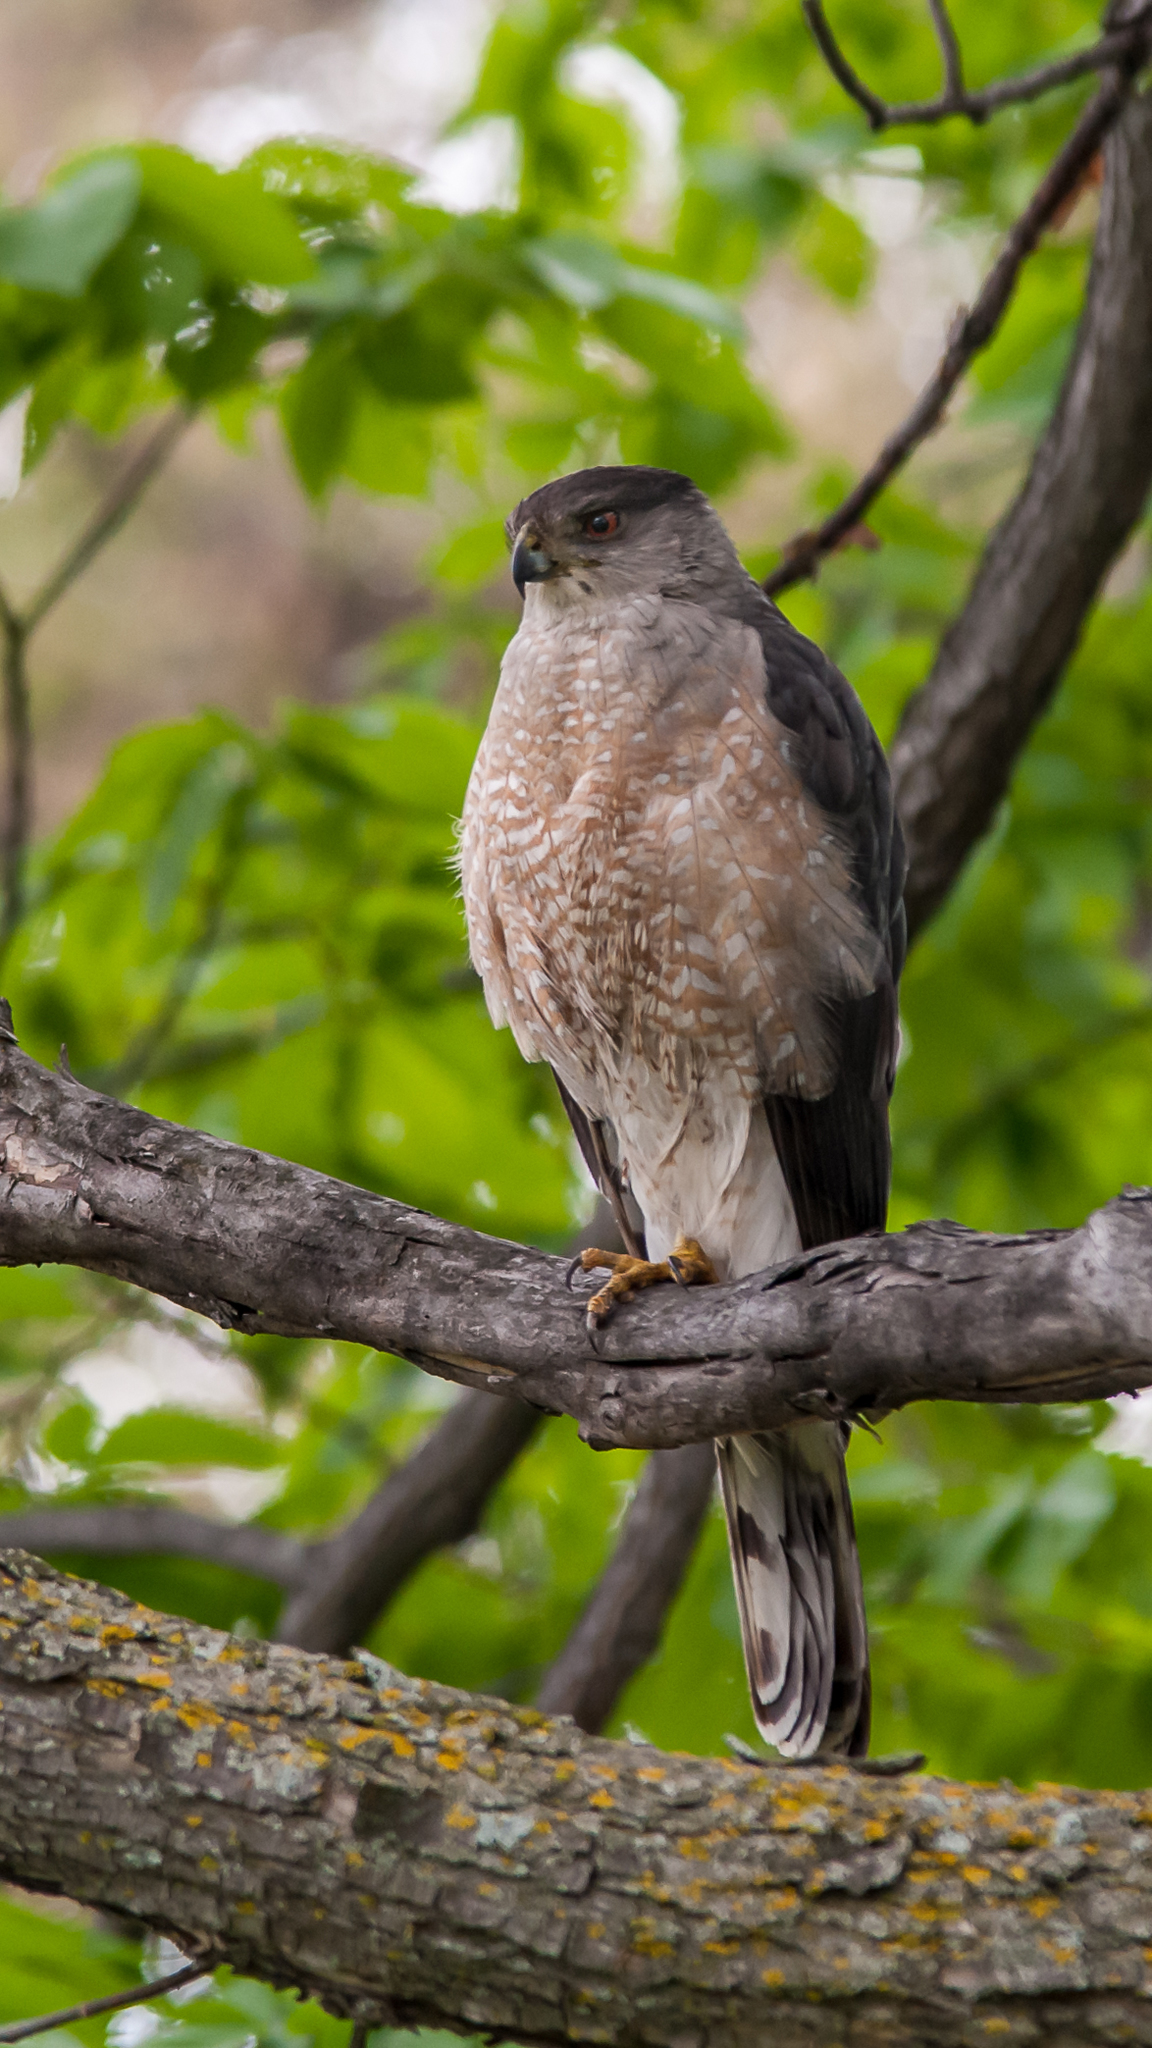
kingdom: Animalia
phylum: Chordata
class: Aves
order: Accipitriformes
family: Accipitridae
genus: Accipiter
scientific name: Accipiter cooperii
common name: Cooper's hawk
